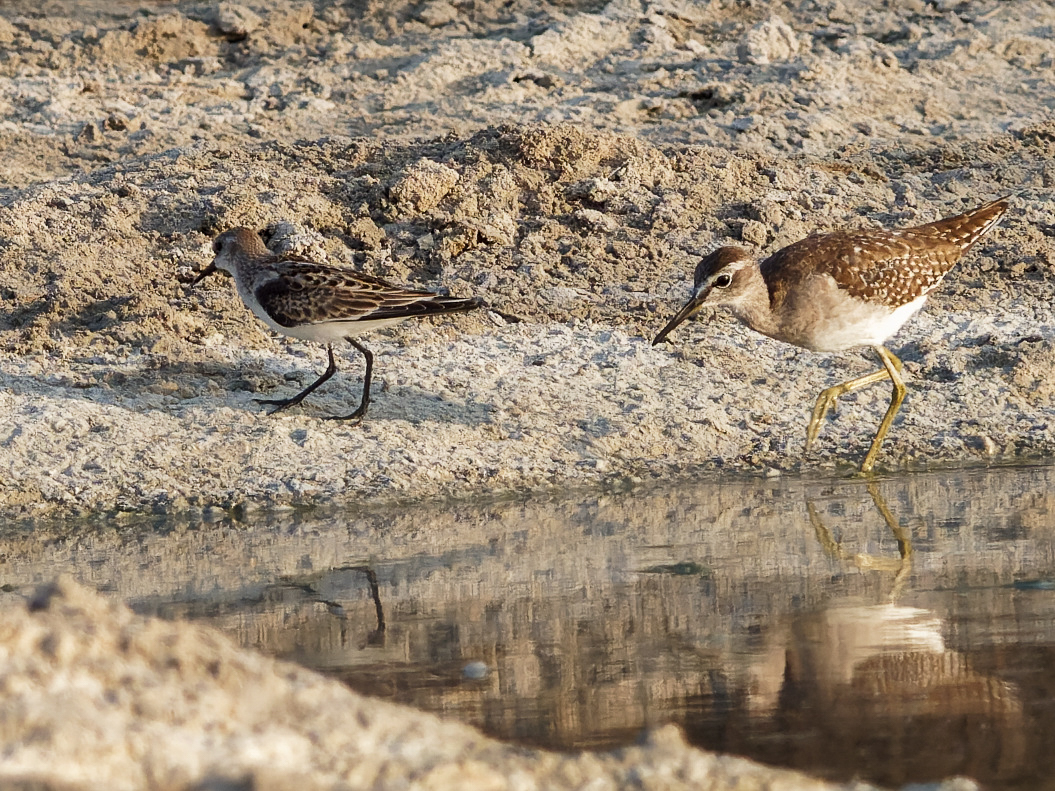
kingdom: Animalia
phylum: Chordata
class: Aves
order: Charadriiformes
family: Scolopacidae
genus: Tringa
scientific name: Tringa glareola
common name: Wood sandpiper
